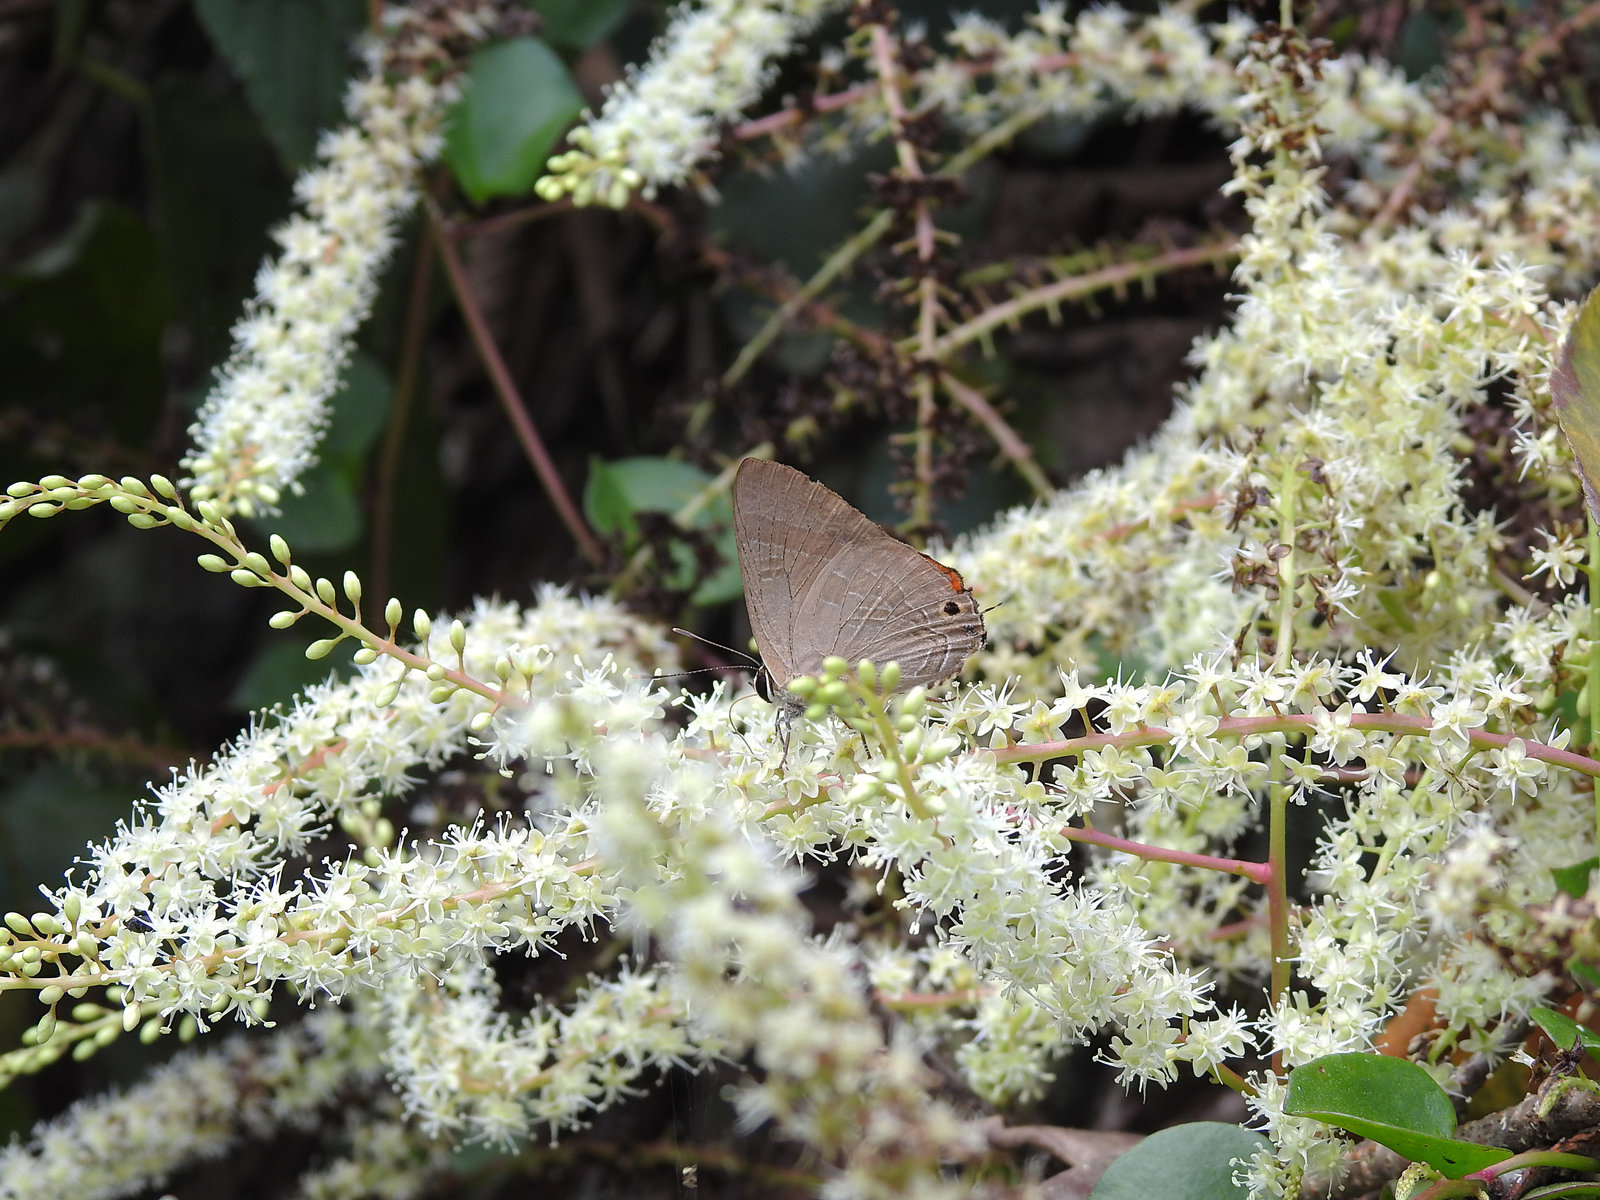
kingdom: Animalia
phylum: Arthropoda
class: Insecta
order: Lepidoptera
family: Lycaenidae
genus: Deudorix
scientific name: Deudorix epijarbas
